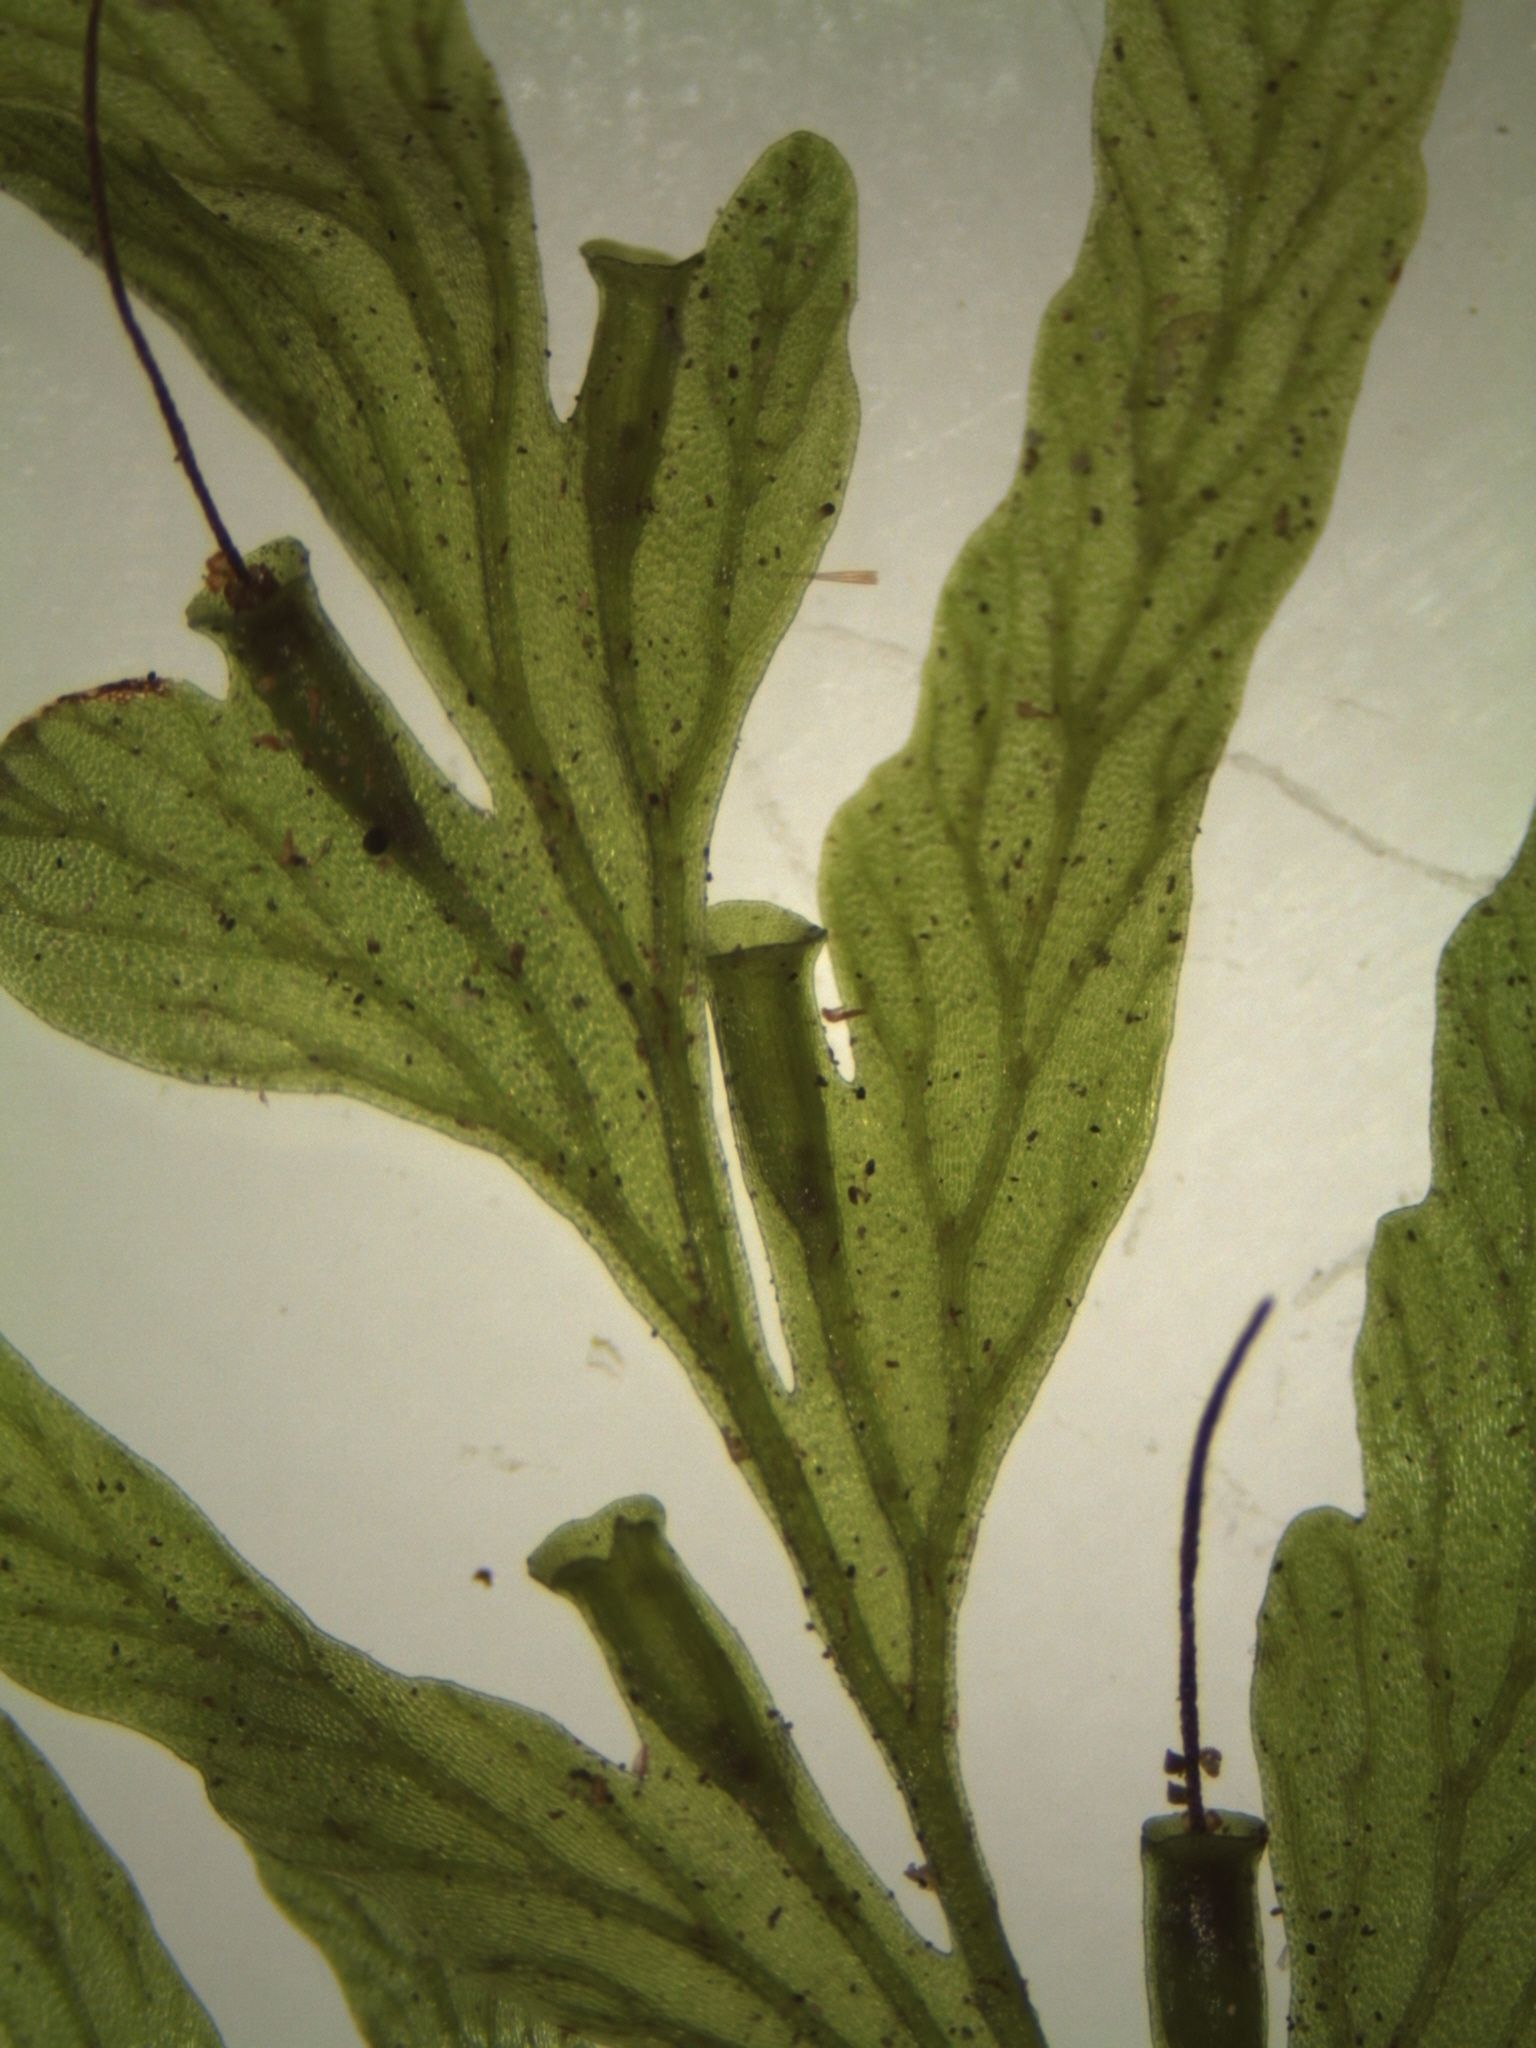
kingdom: Plantae
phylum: Tracheophyta
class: Polypodiopsida
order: Hymenophyllales
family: Hymenophyllaceae
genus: Polyphlebium
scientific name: Polyphlebium venosum
